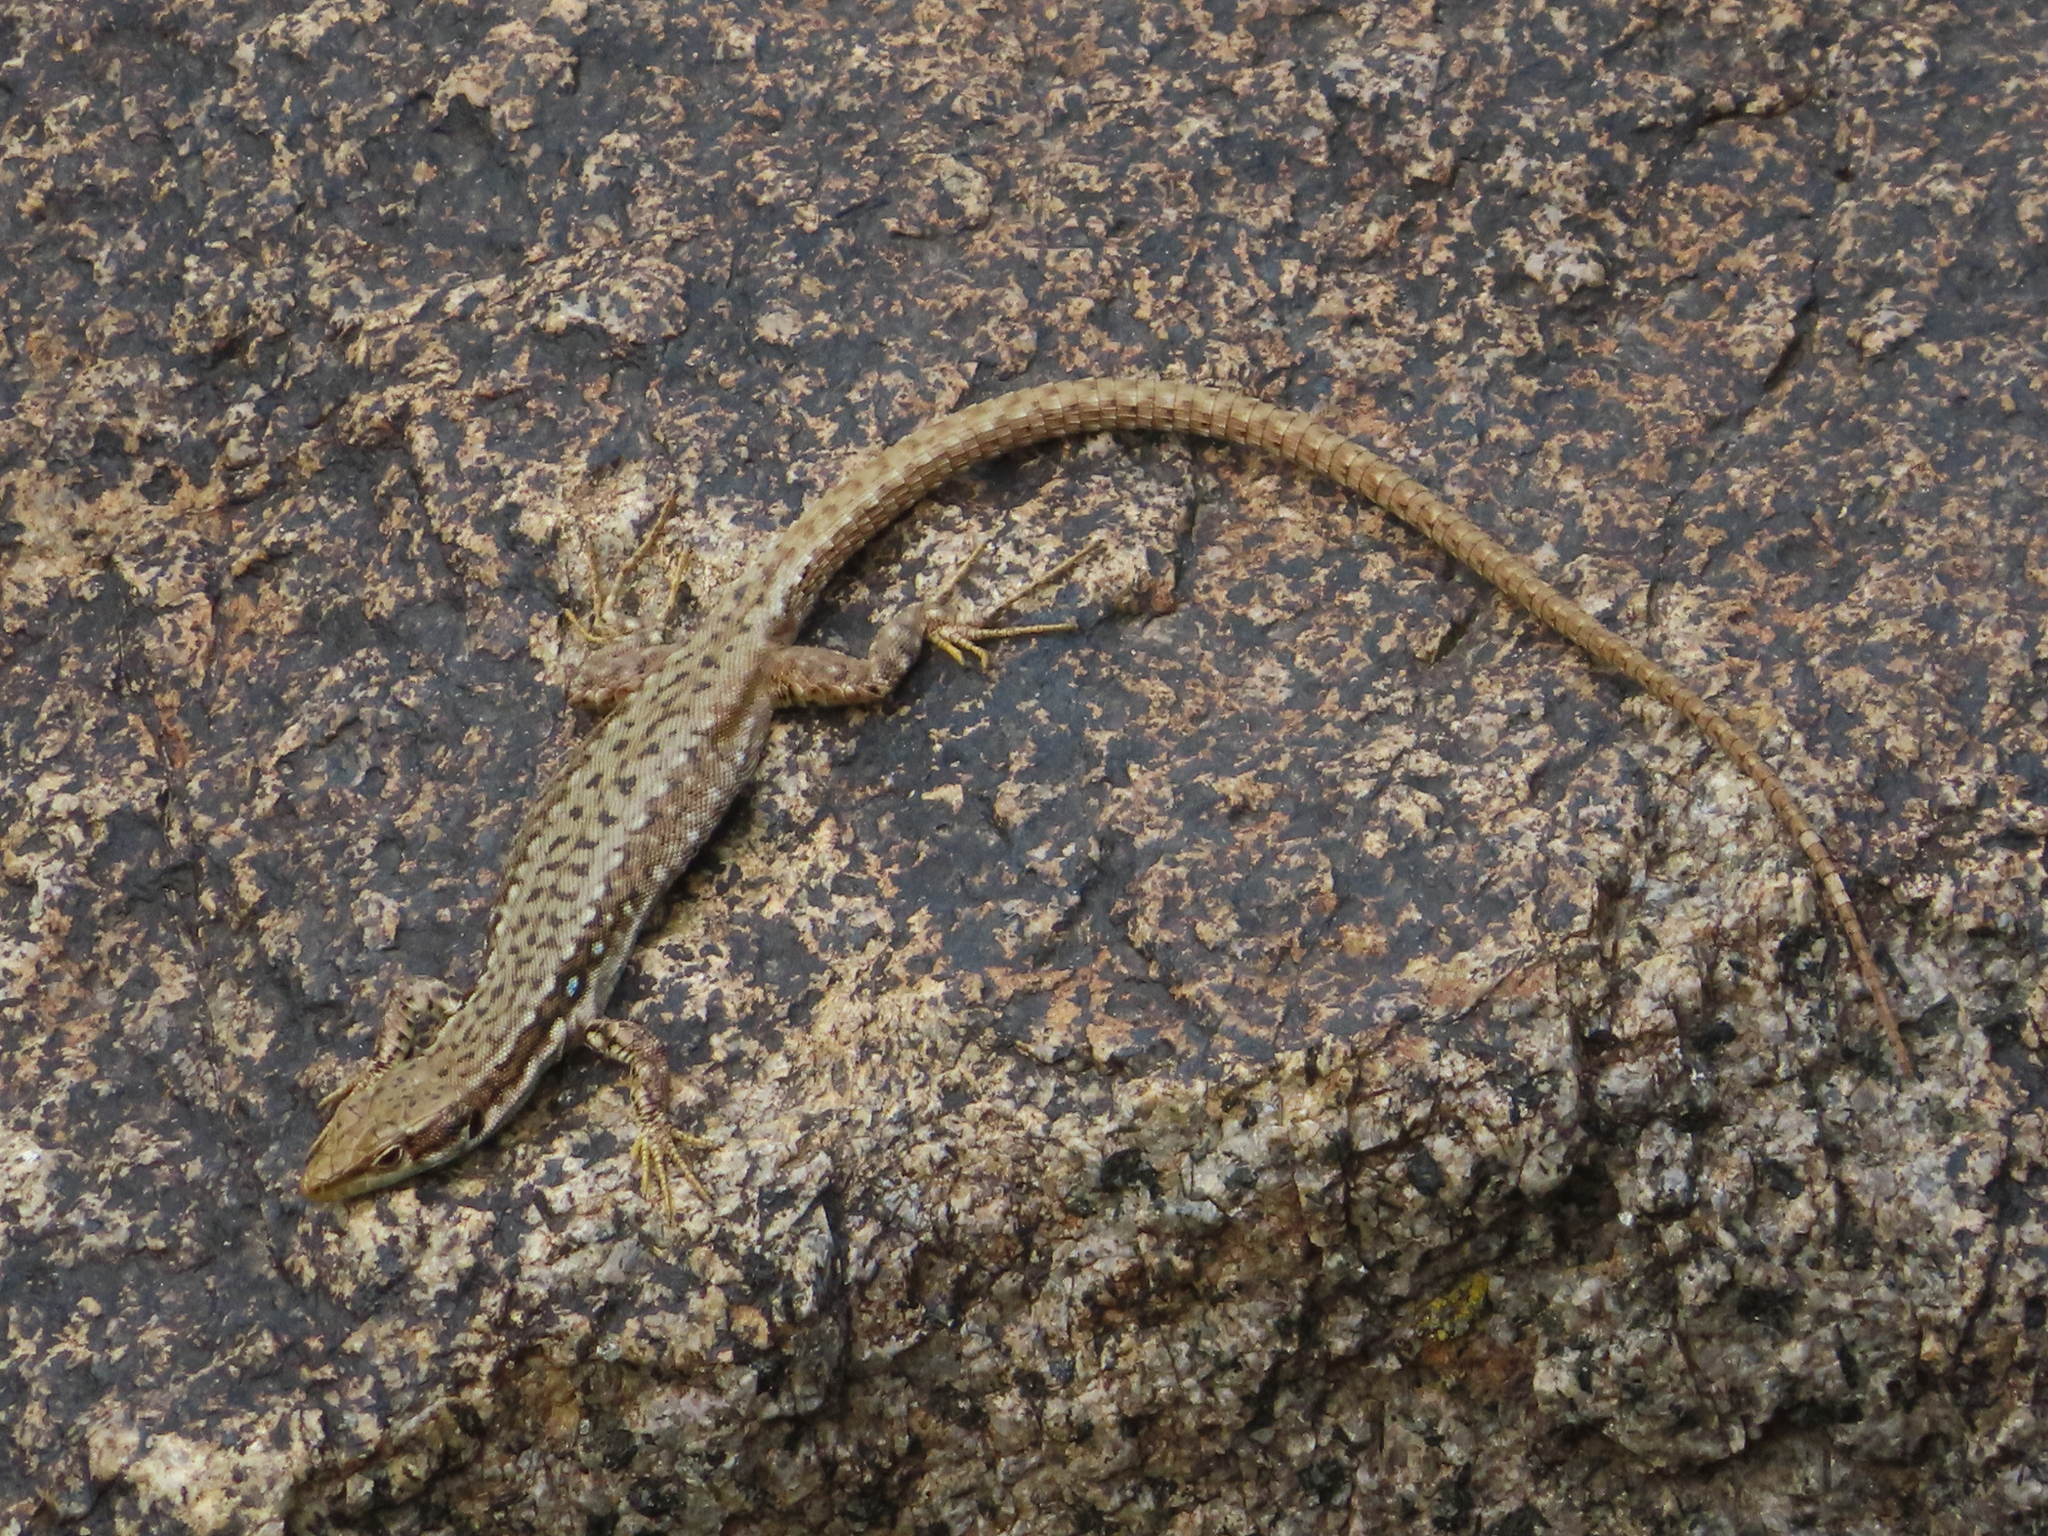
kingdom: Animalia
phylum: Chordata
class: Squamata
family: Lacertidae
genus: Darevskia
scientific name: Darevskia raddei
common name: Radde's lizard
